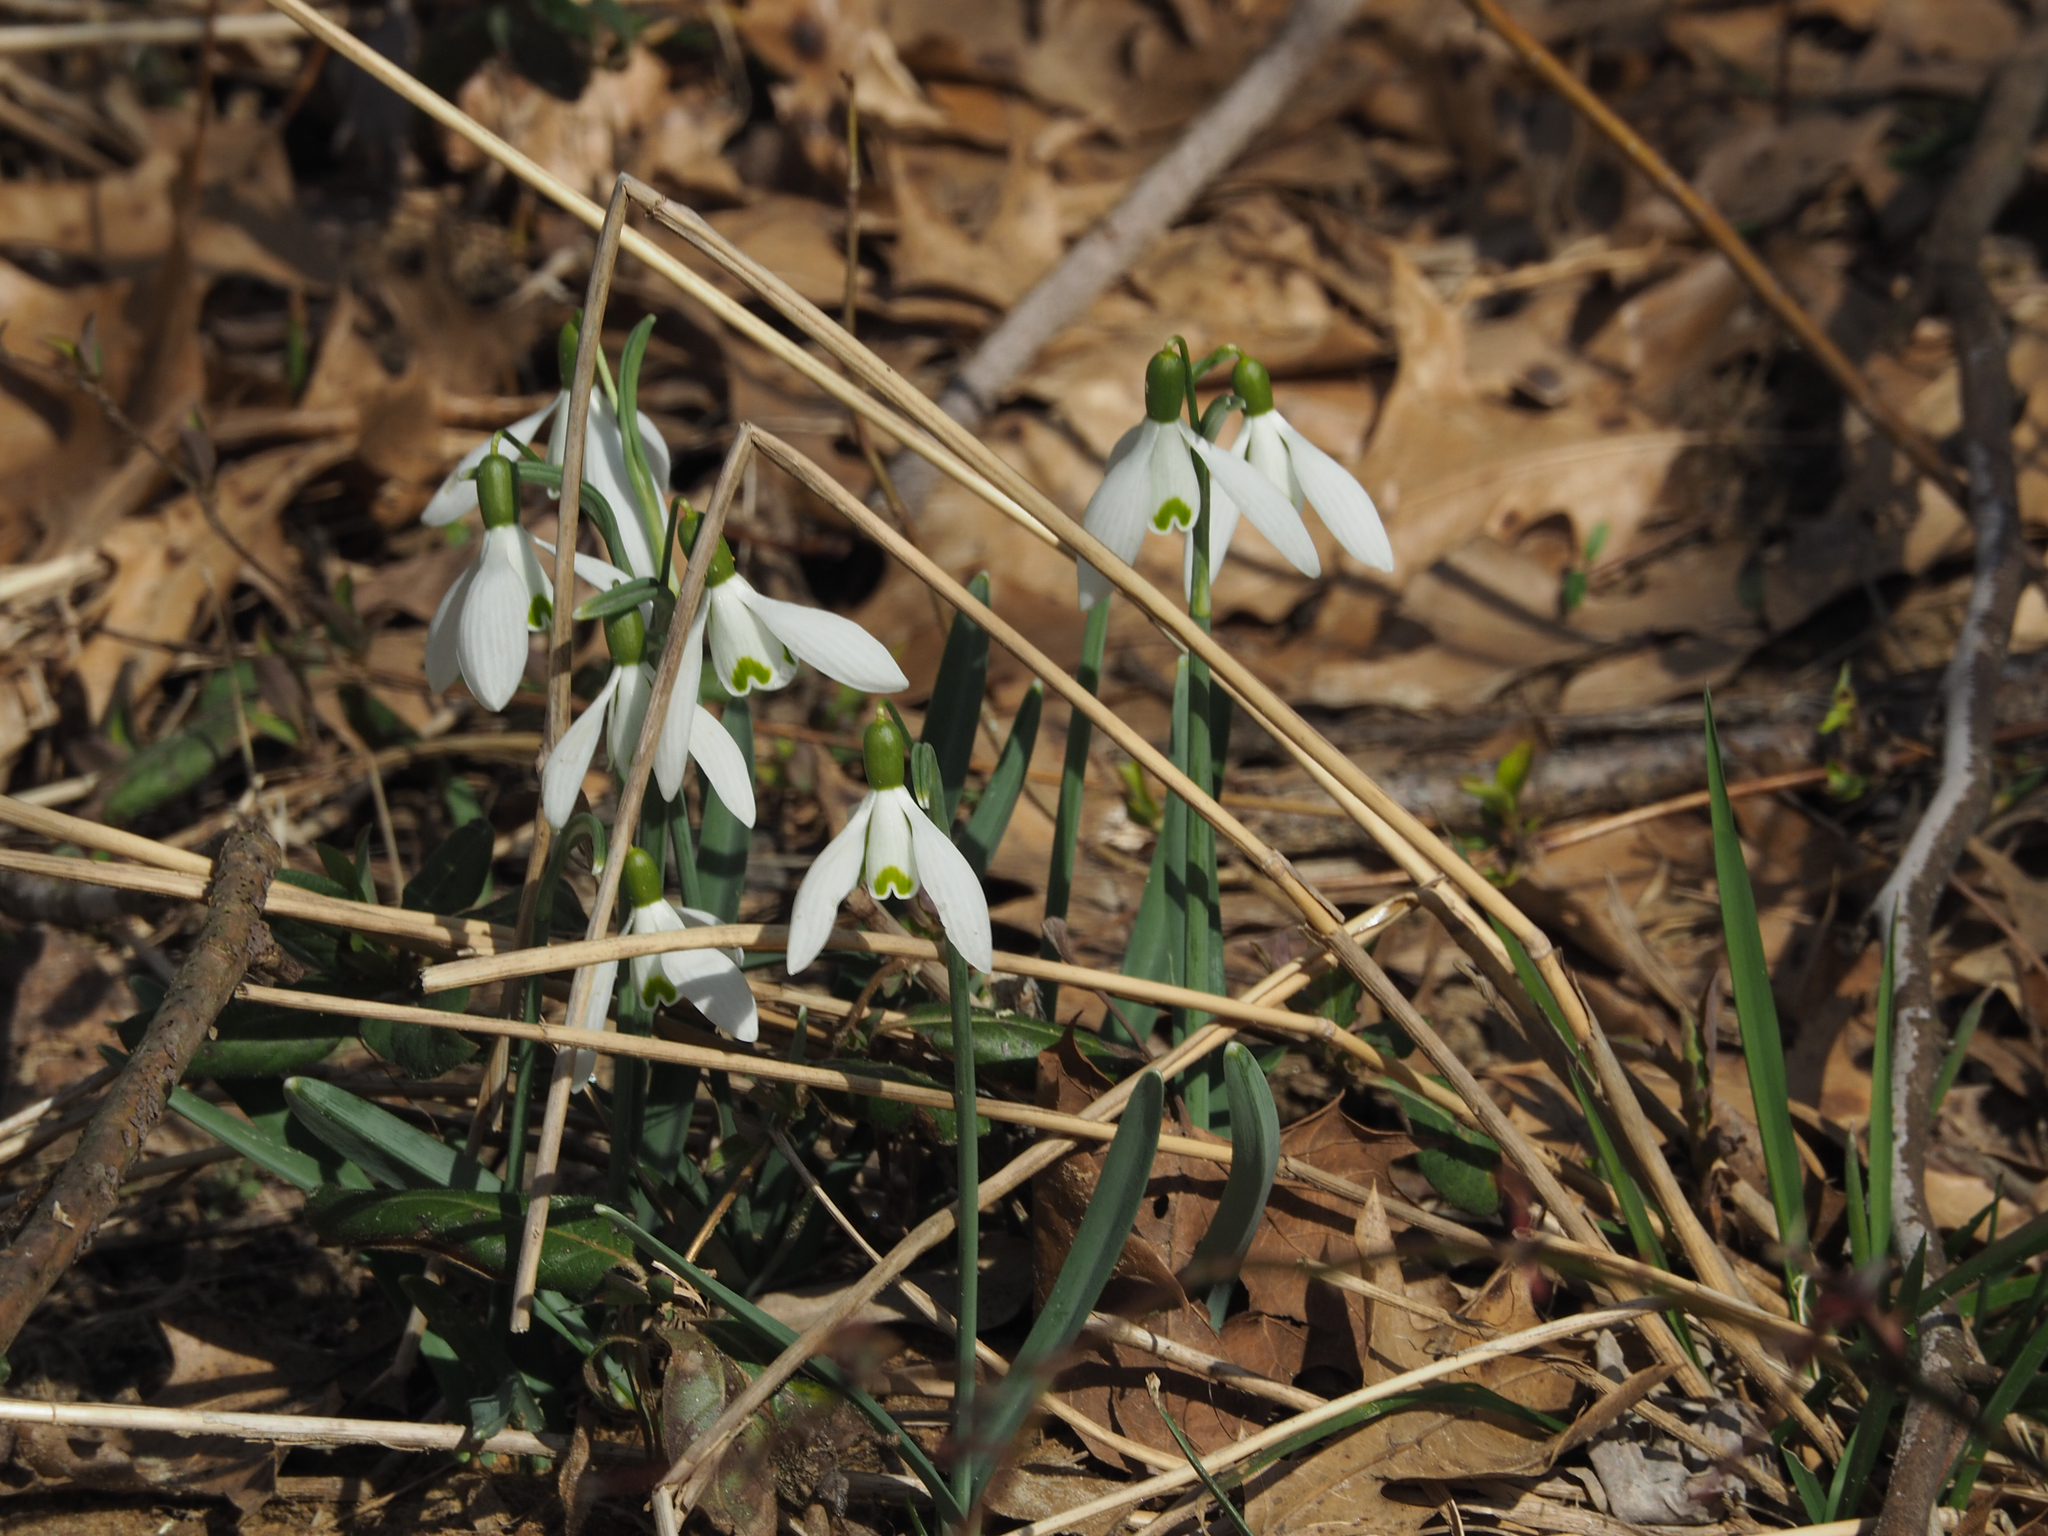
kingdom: Plantae
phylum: Tracheophyta
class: Liliopsida
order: Asparagales
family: Amaryllidaceae
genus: Galanthus
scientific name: Galanthus nivalis
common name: Snowdrop
